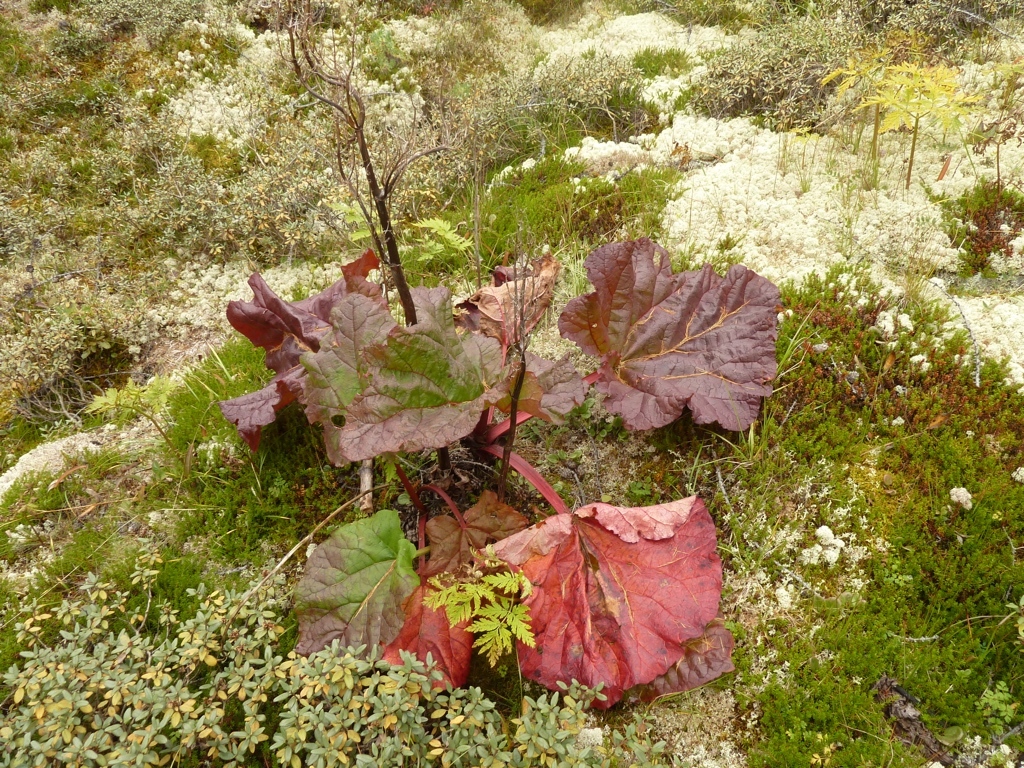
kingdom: Plantae
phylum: Tracheophyta
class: Magnoliopsida
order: Caryophyllales
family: Polygonaceae
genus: Rheum
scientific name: Rheum compactum
